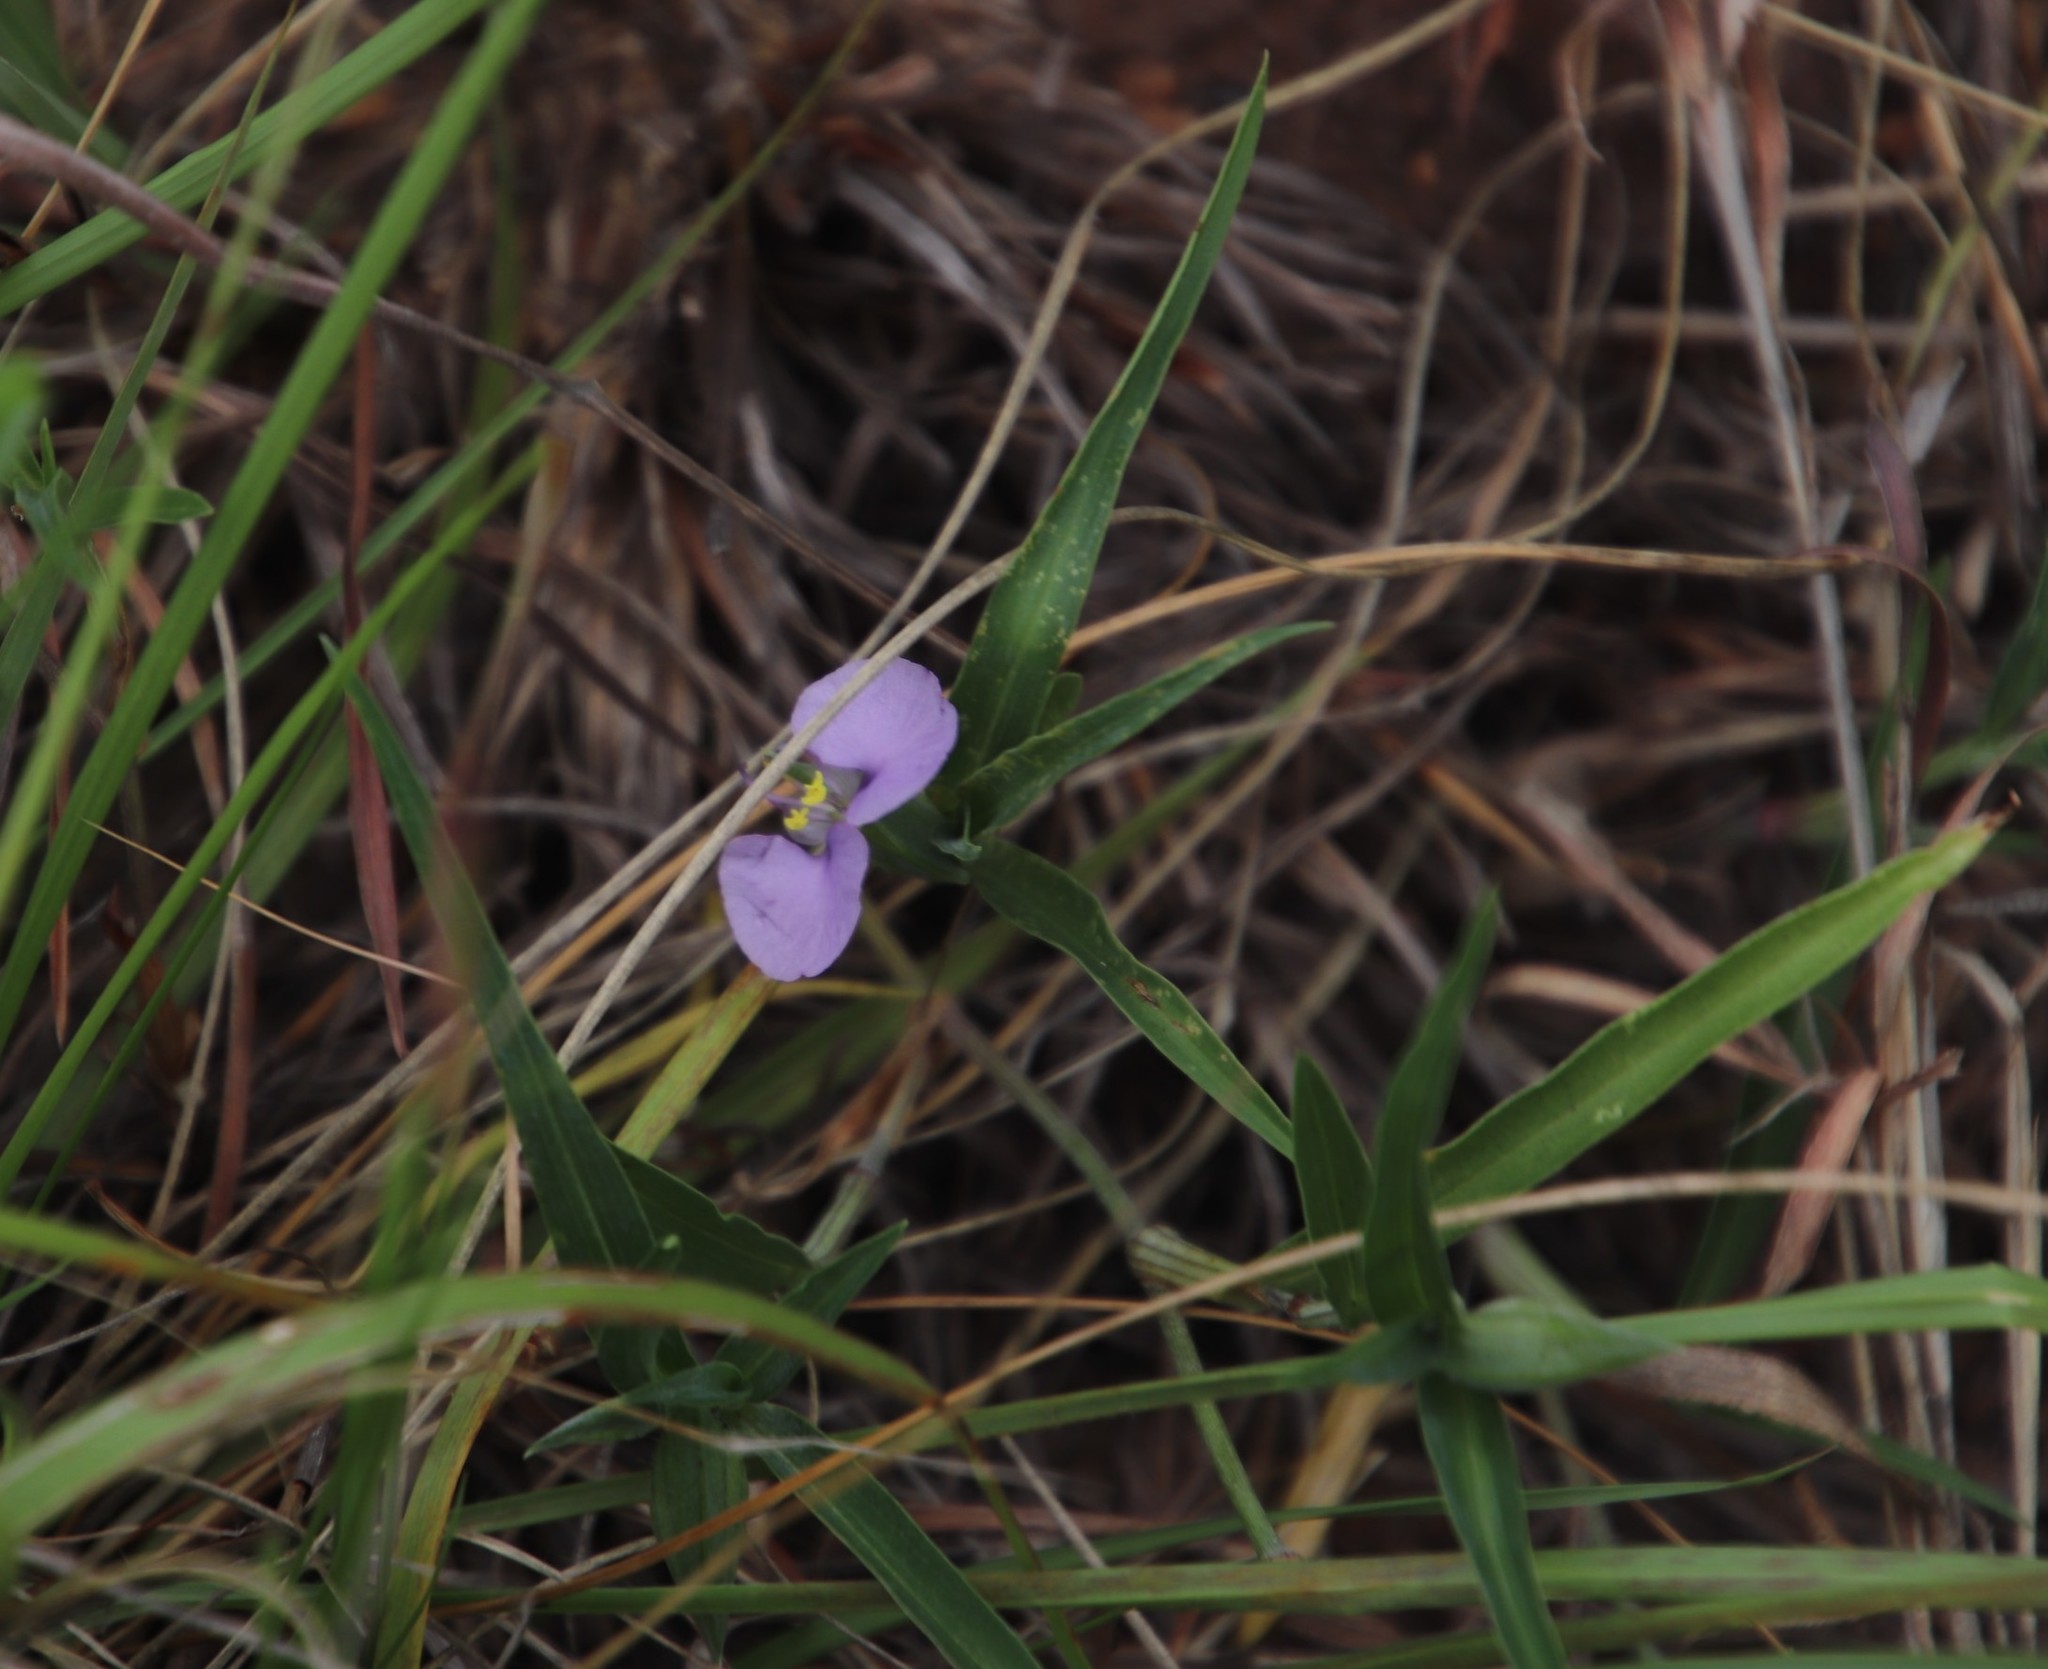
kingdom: Plantae
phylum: Tracheophyta
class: Liliopsida
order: Commelinales
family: Commelinaceae
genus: Commelina
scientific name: Commelina erecta
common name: Blousel blommetjie
